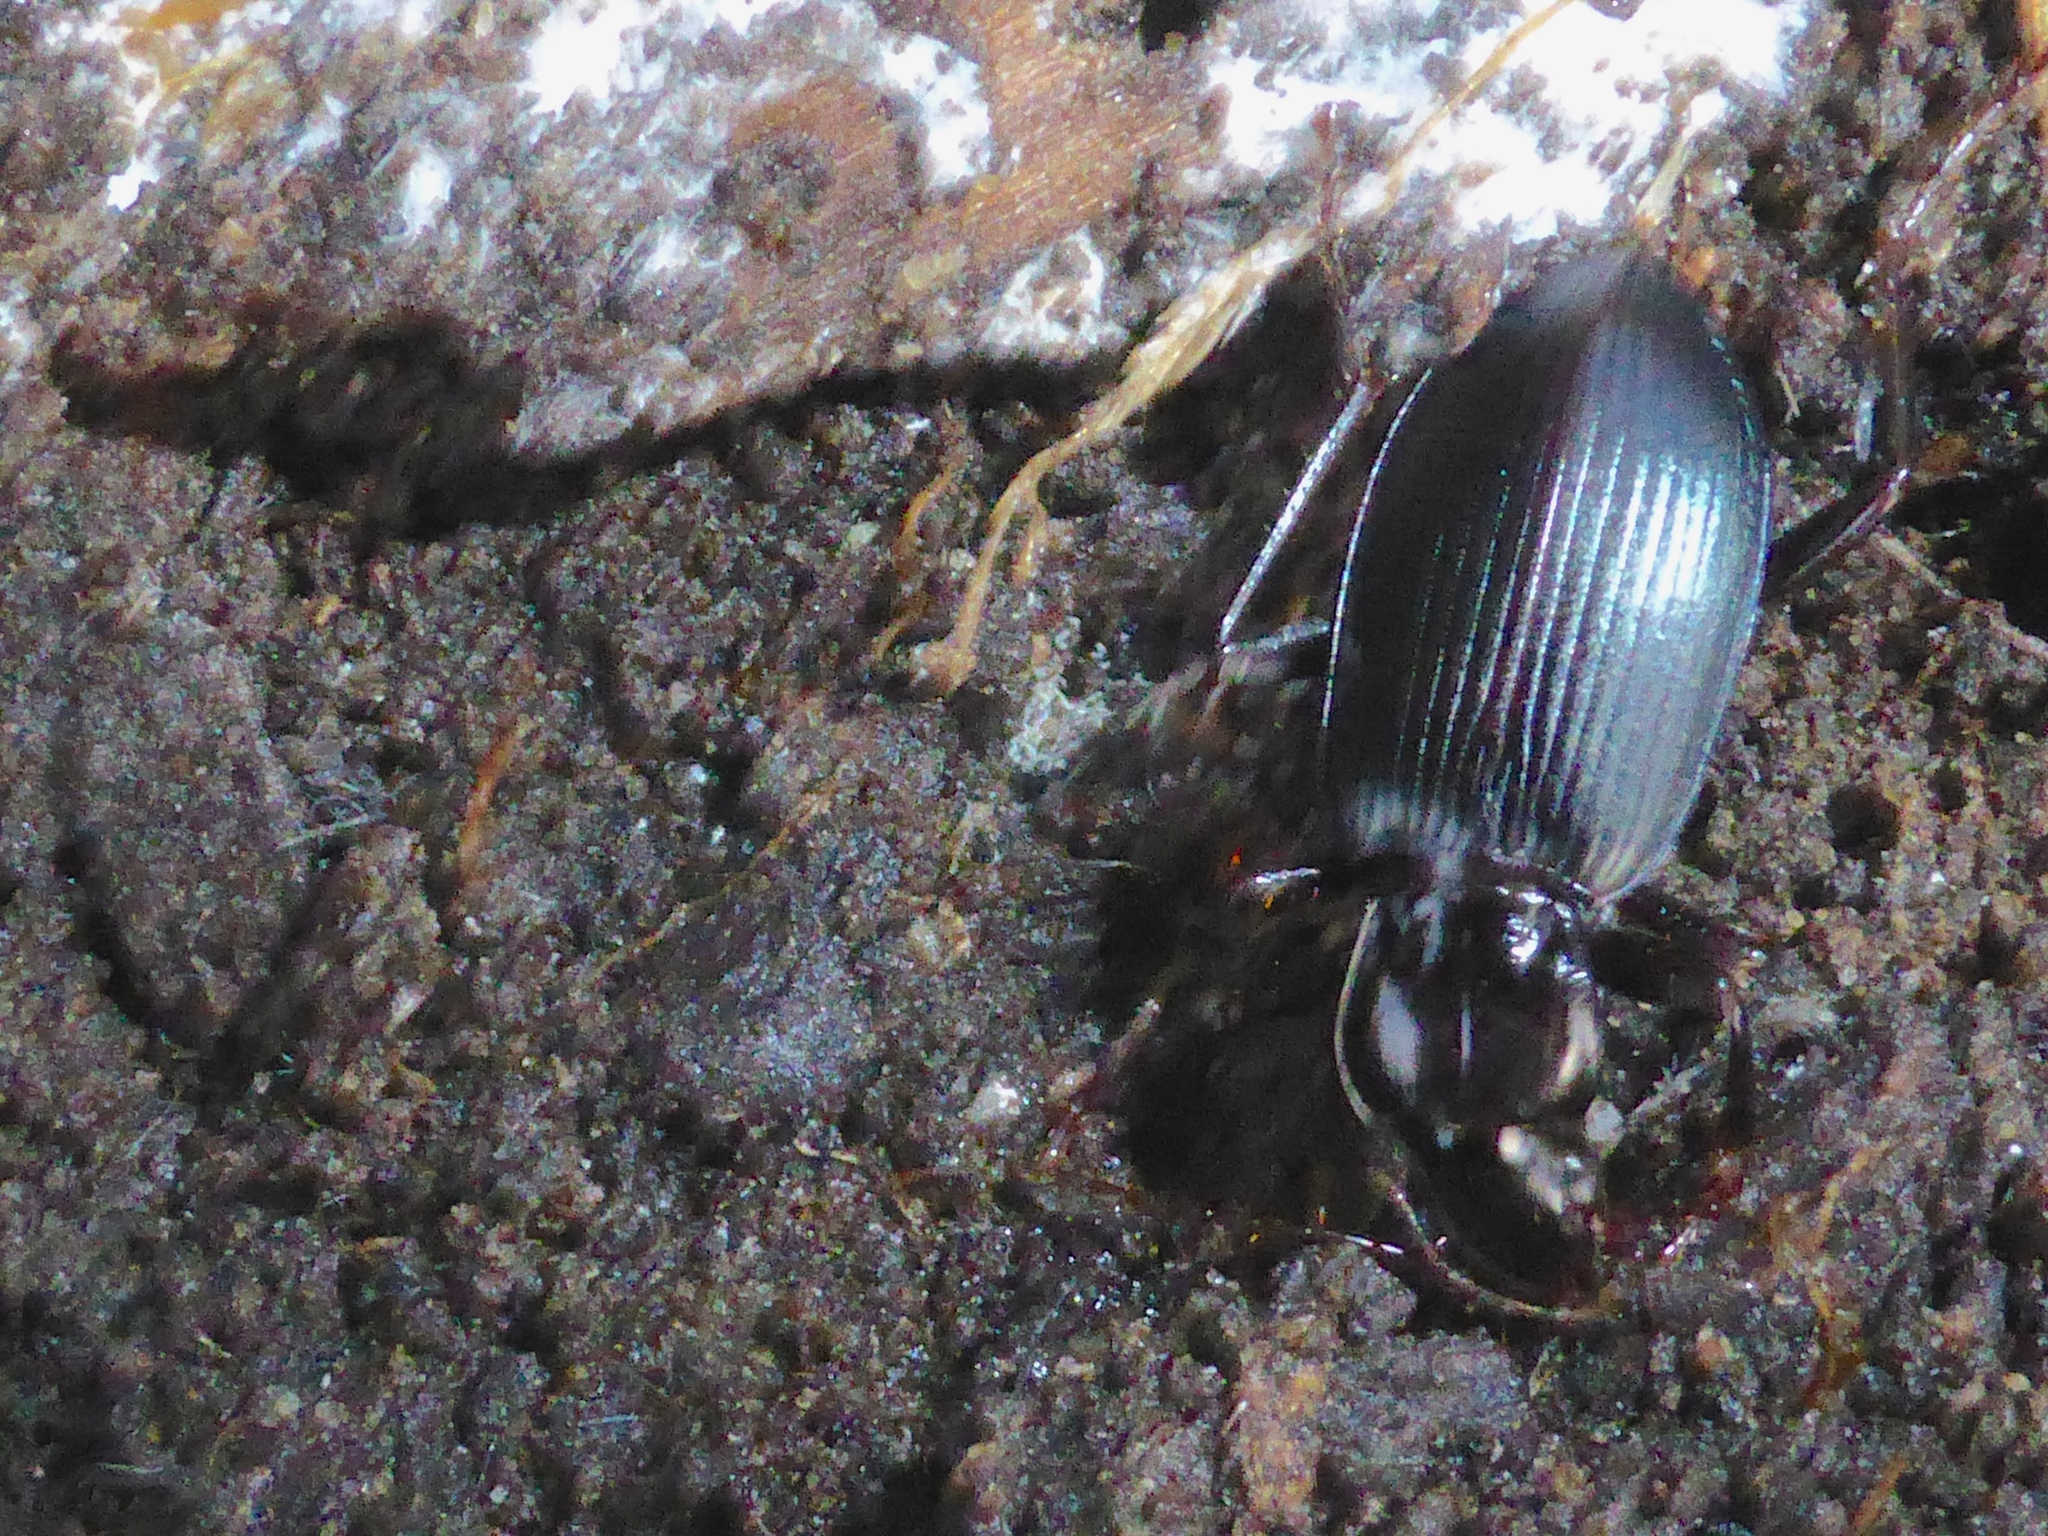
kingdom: Animalia
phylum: Arthropoda
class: Insecta
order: Coleoptera
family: Carabidae
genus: Laemostenus
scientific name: Laemostenus complanatus
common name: Cosmopolitan ground beetle
